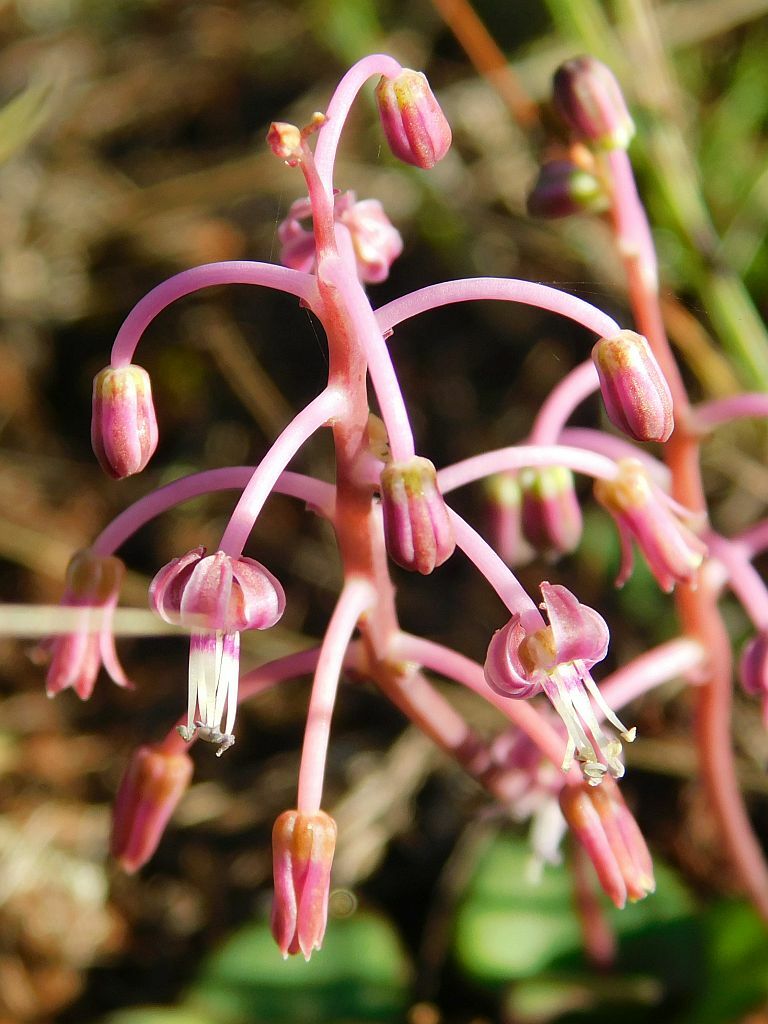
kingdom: Plantae
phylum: Tracheophyta
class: Liliopsida
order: Asparagales
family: Asparagaceae
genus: Ledebouria
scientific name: Ledebouria ovalifolia
